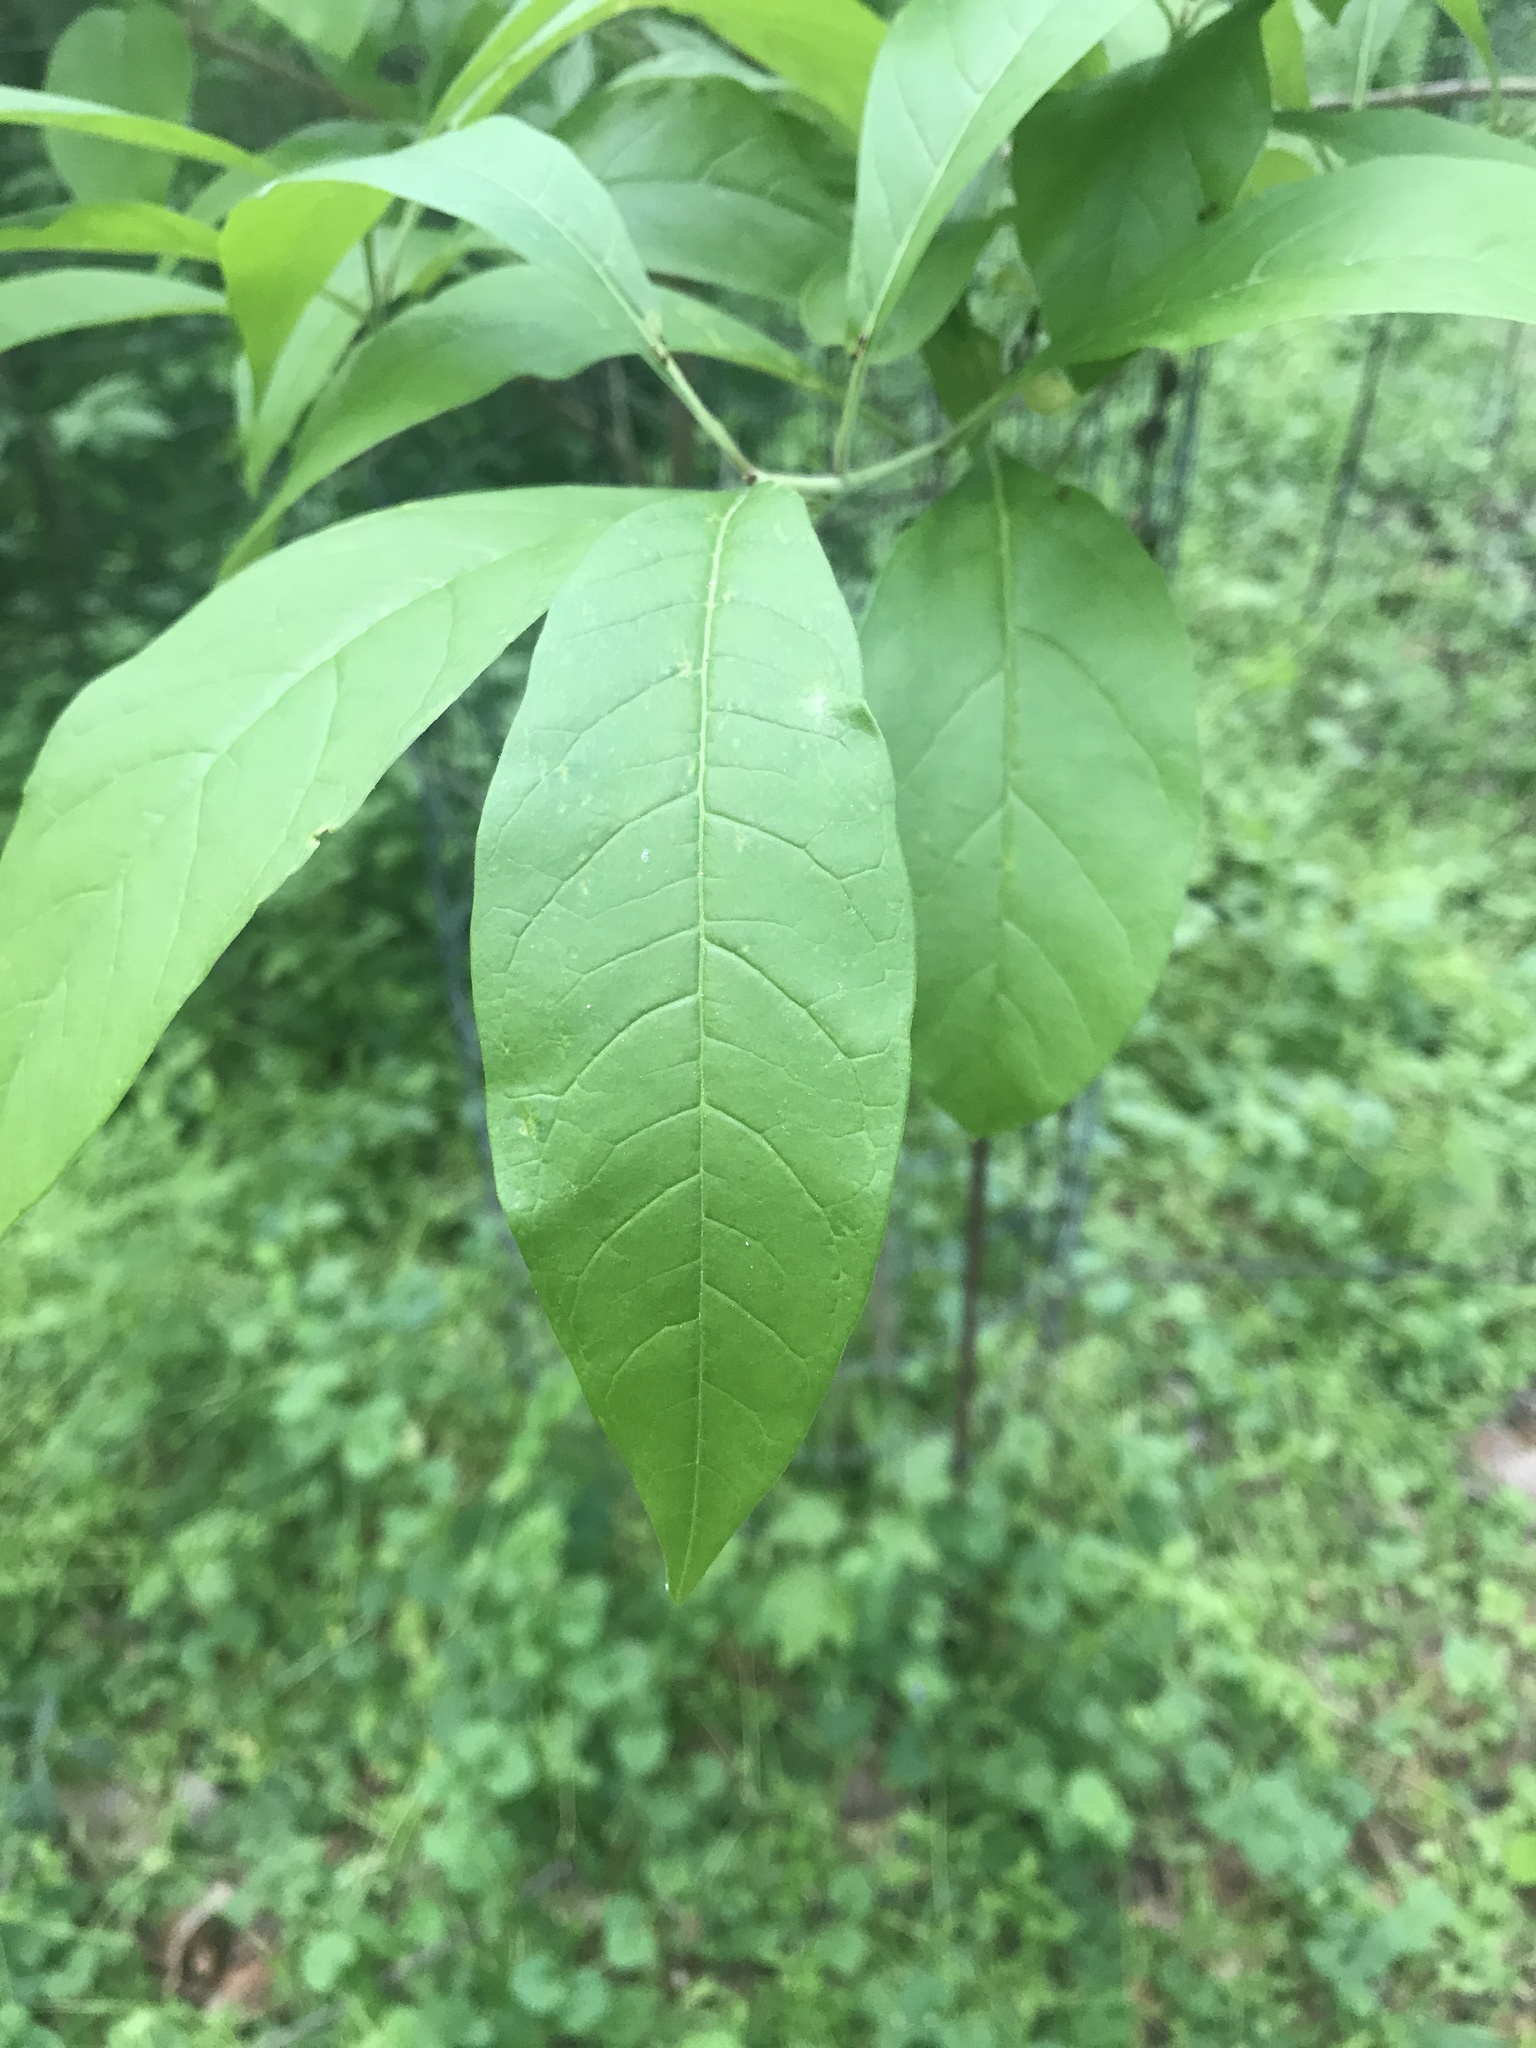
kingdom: Plantae
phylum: Tracheophyta
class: Magnoliopsida
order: Lamiales
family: Oleaceae
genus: Chionanthus
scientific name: Chionanthus virginicus
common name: American fringetree
